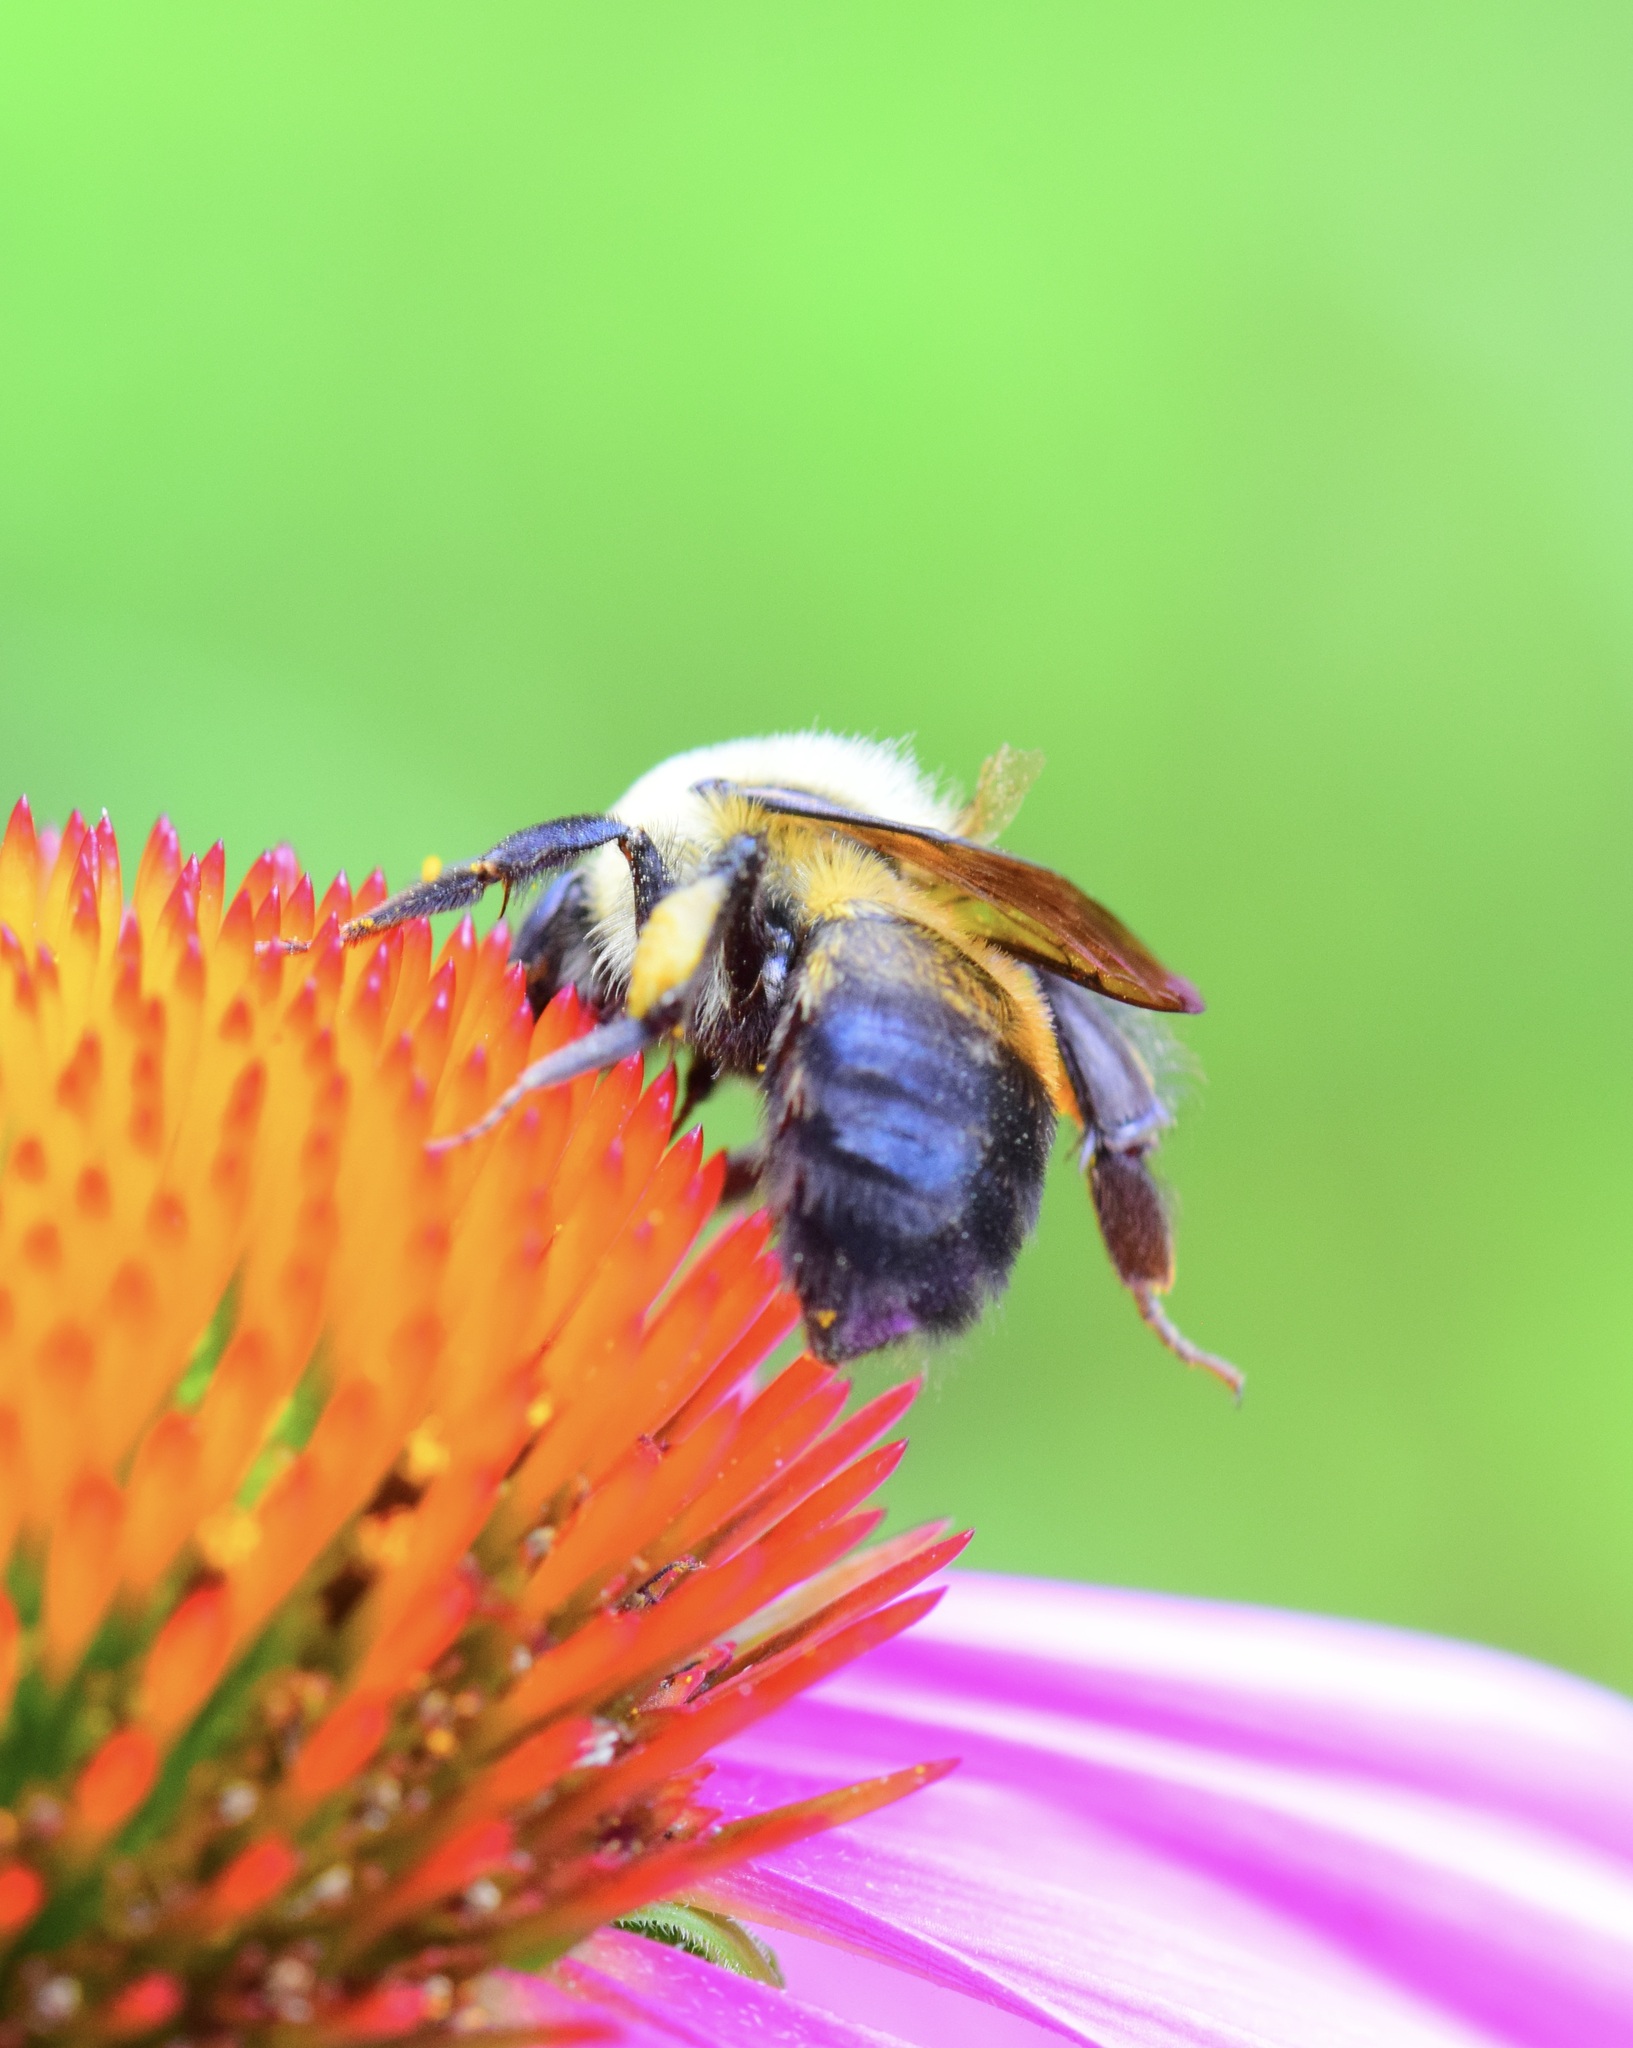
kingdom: Animalia
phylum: Arthropoda
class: Insecta
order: Hymenoptera
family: Apidae
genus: Bombus
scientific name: Bombus griseocollis
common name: Brown-belted bumble bee
